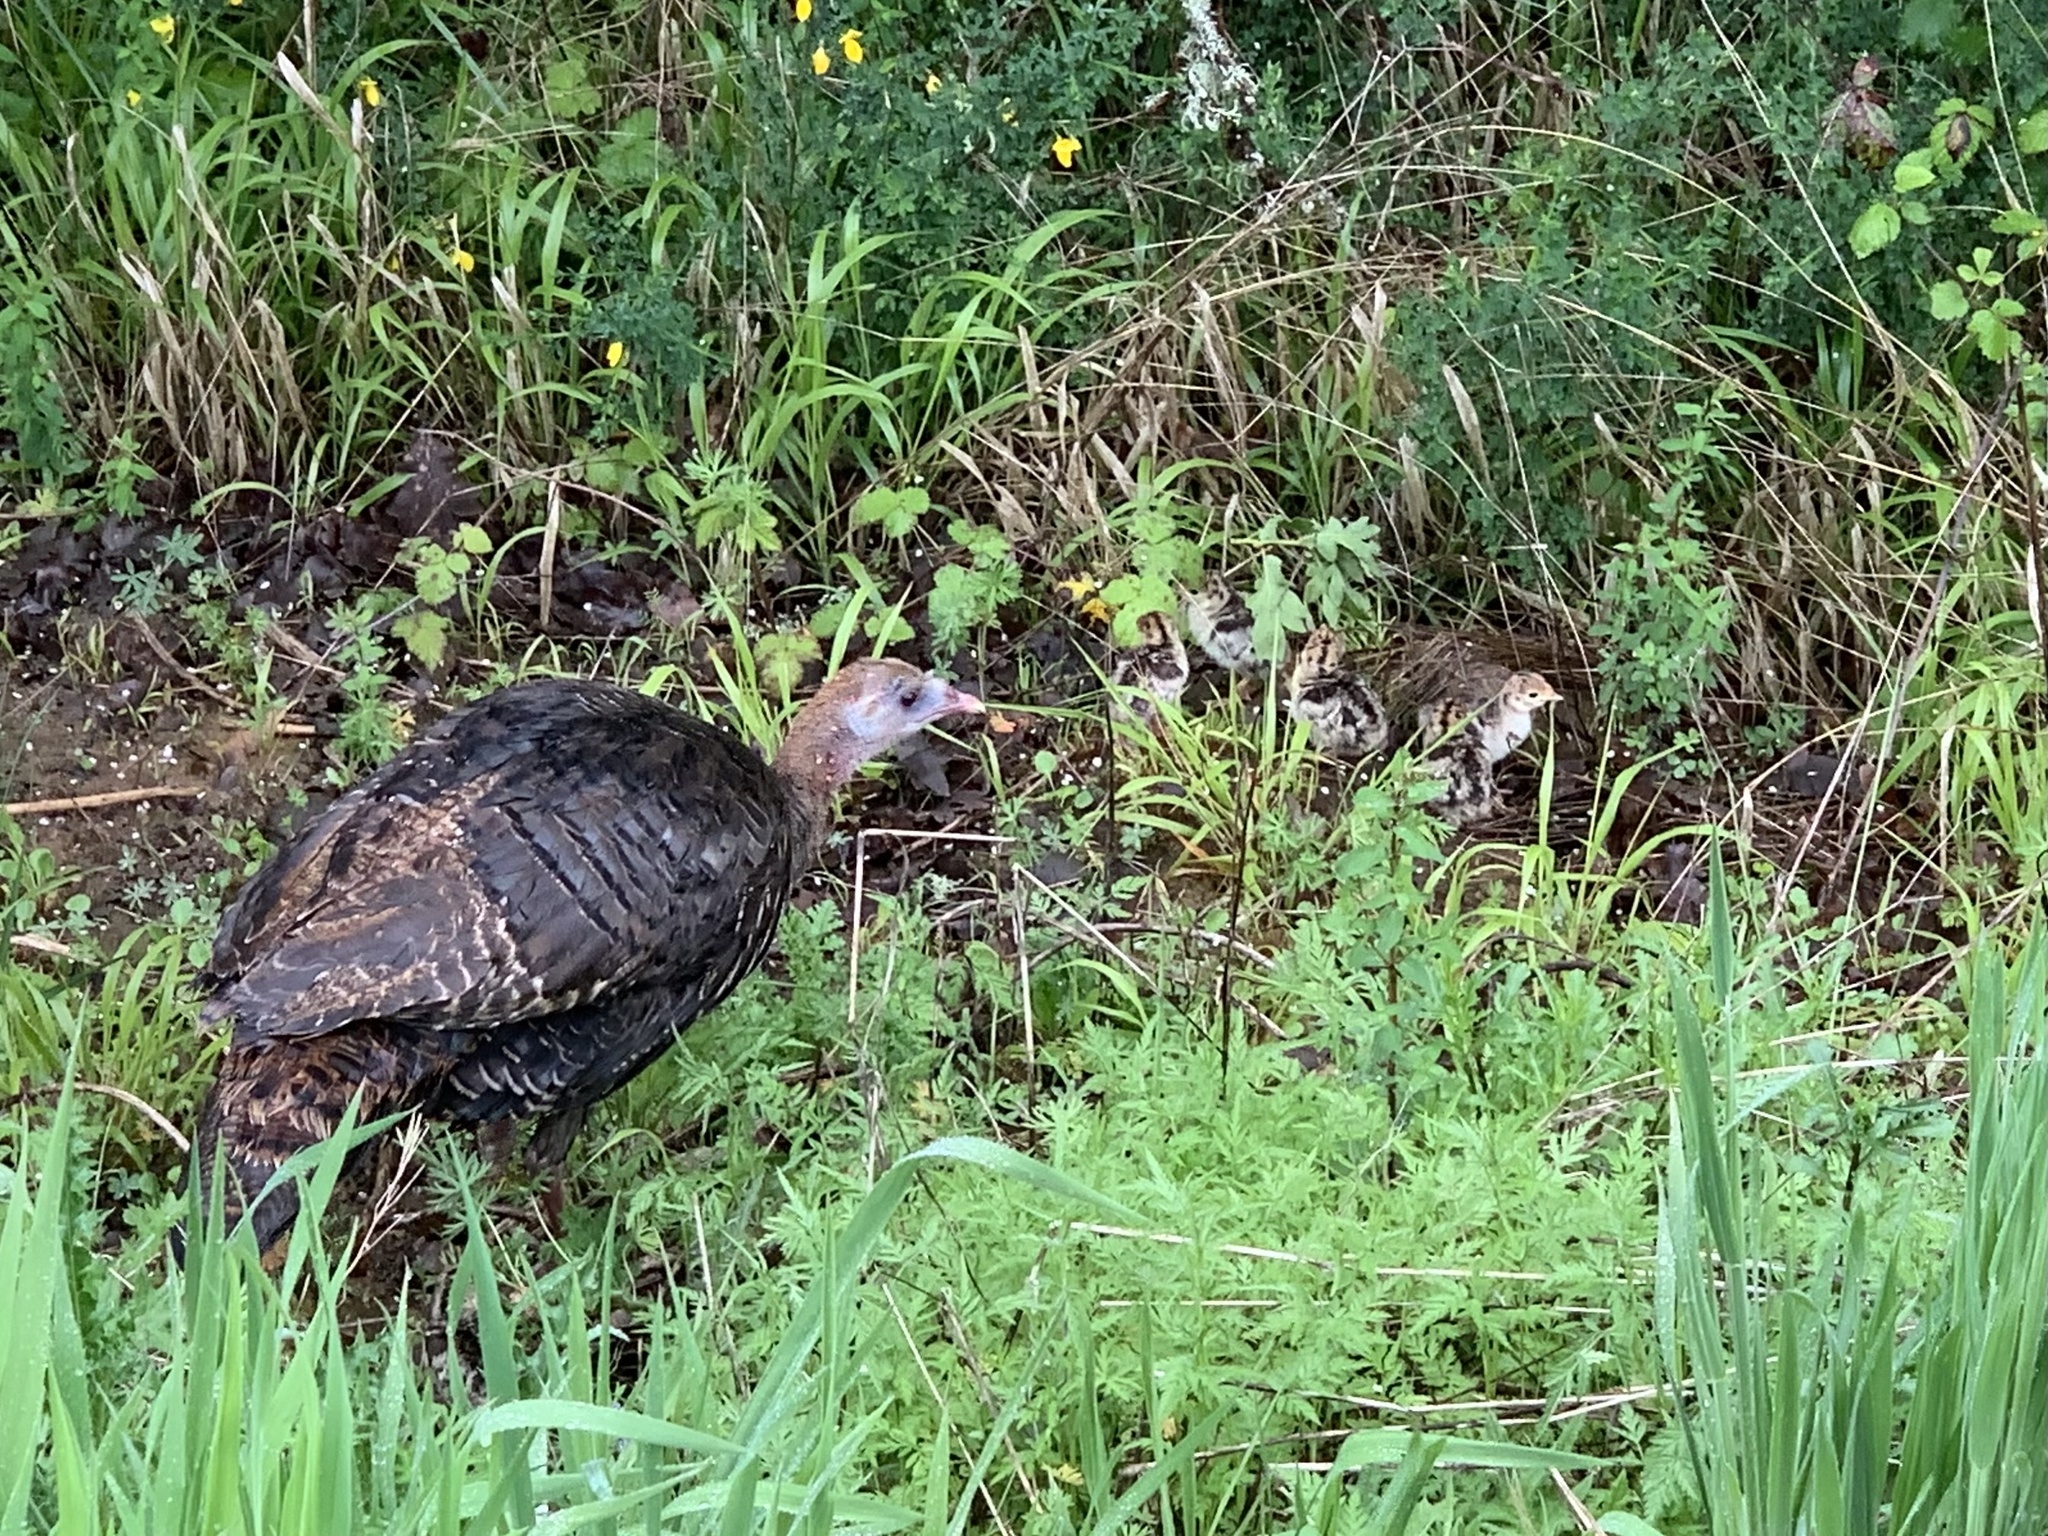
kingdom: Animalia
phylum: Chordata
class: Aves
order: Galliformes
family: Phasianidae
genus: Meleagris
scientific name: Meleagris gallopavo
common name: Wild turkey
